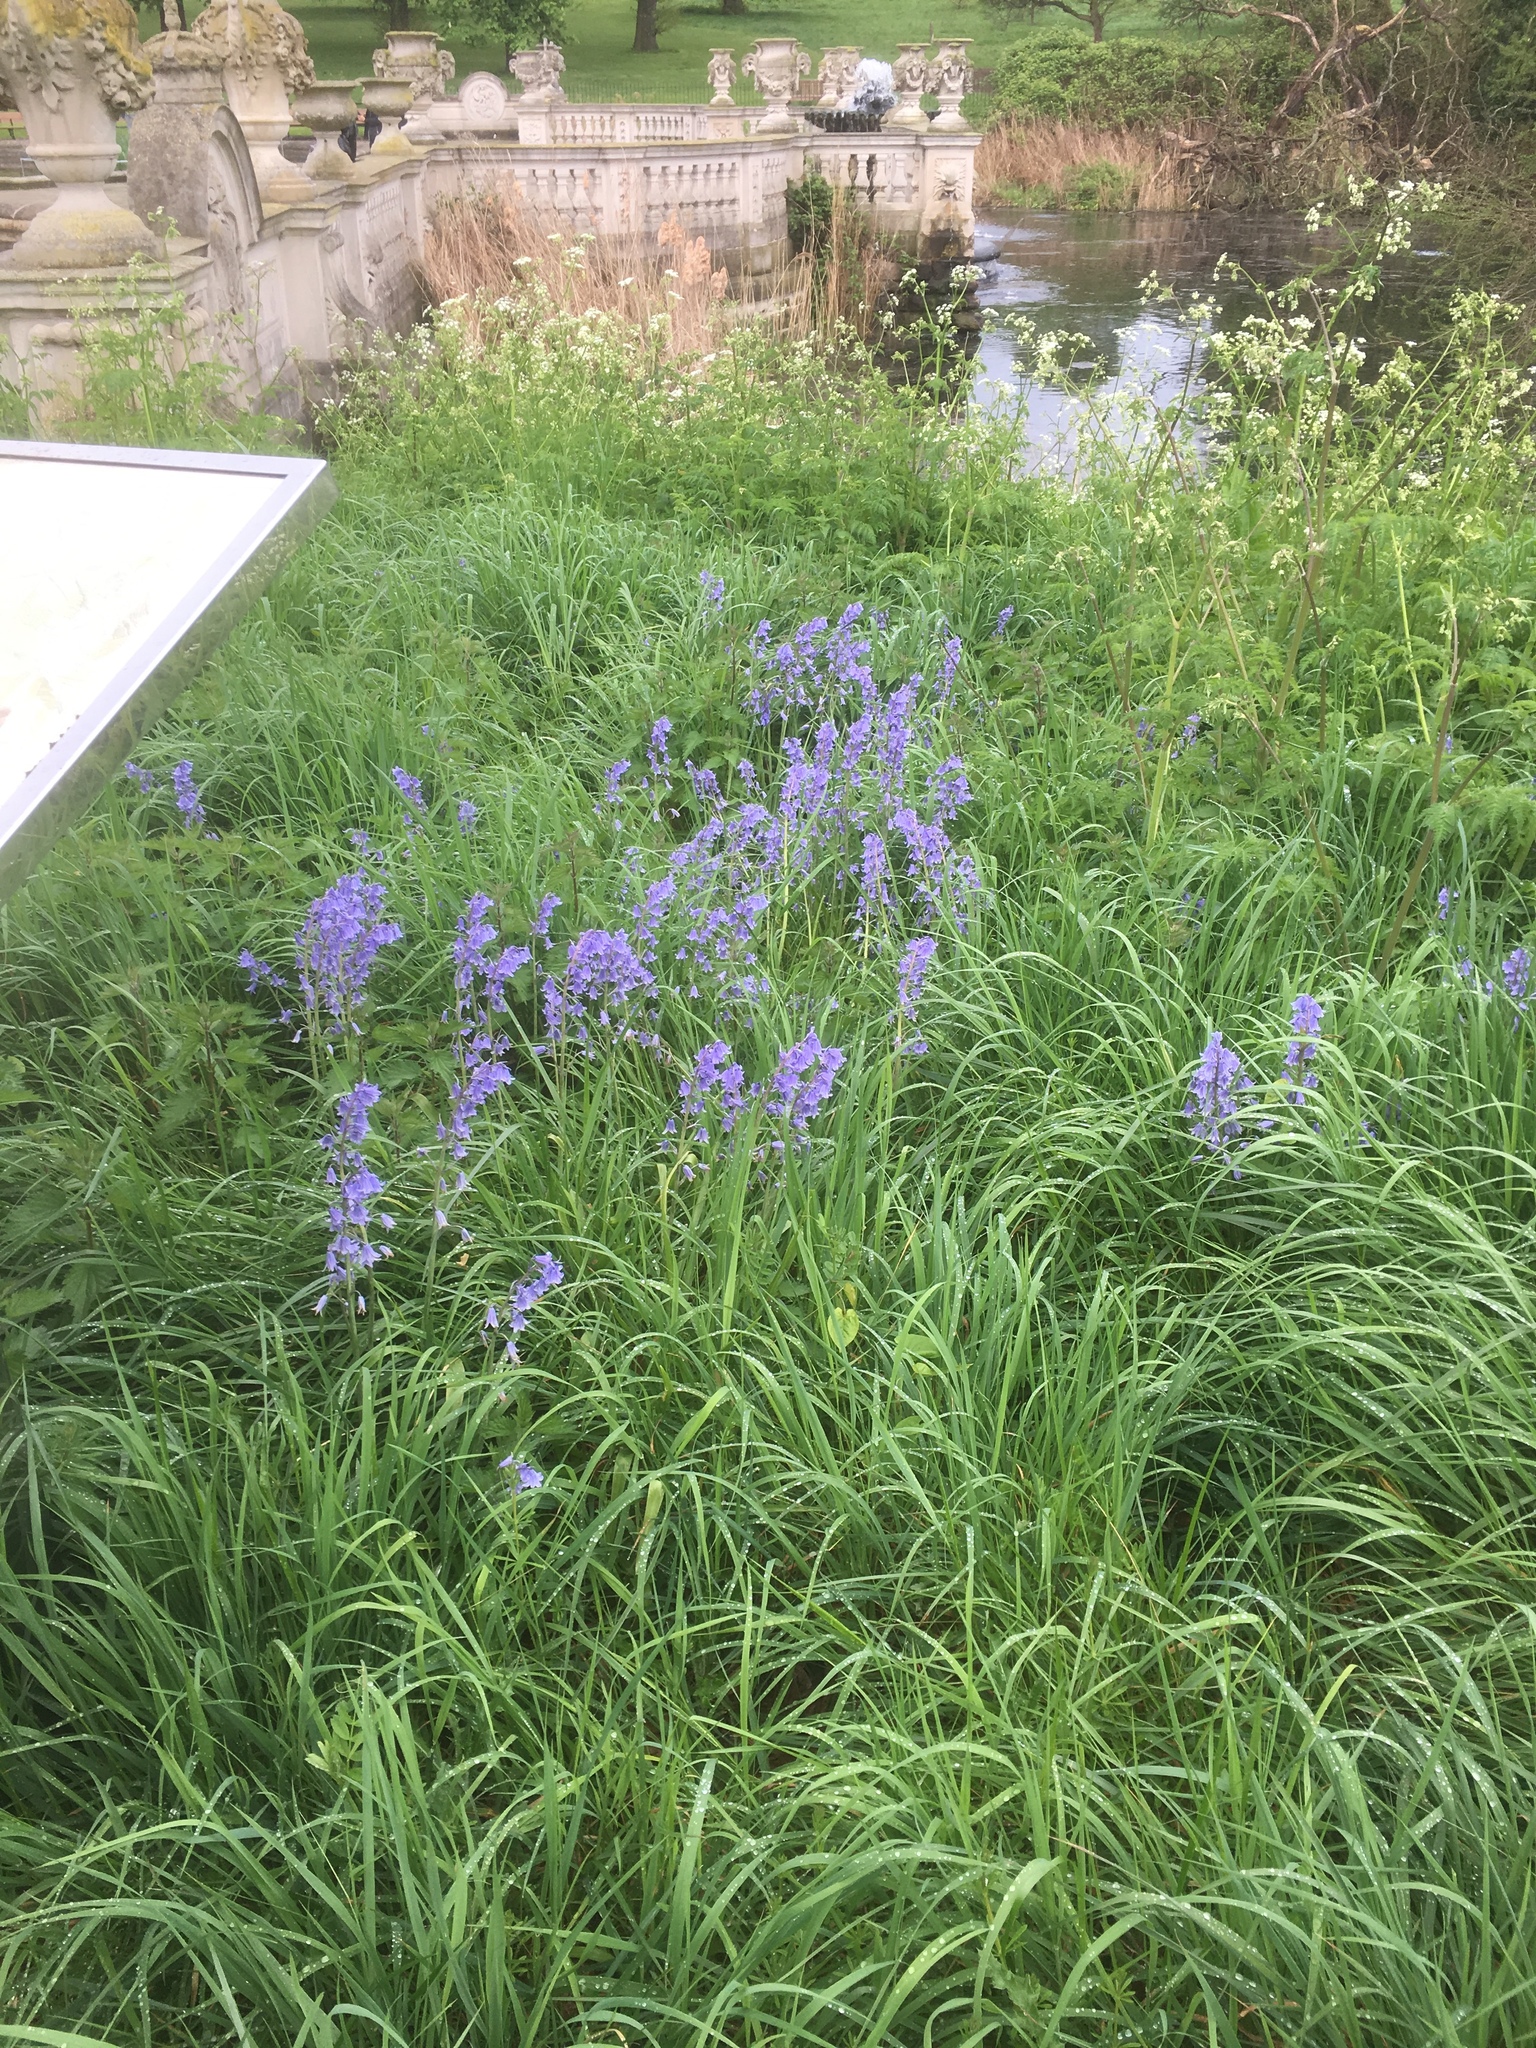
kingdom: Plantae
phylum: Tracheophyta
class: Liliopsida
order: Asparagales
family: Asparagaceae
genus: Hyacinthoides
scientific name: Hyacinthoides hispanica
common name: Spanish bluebell
